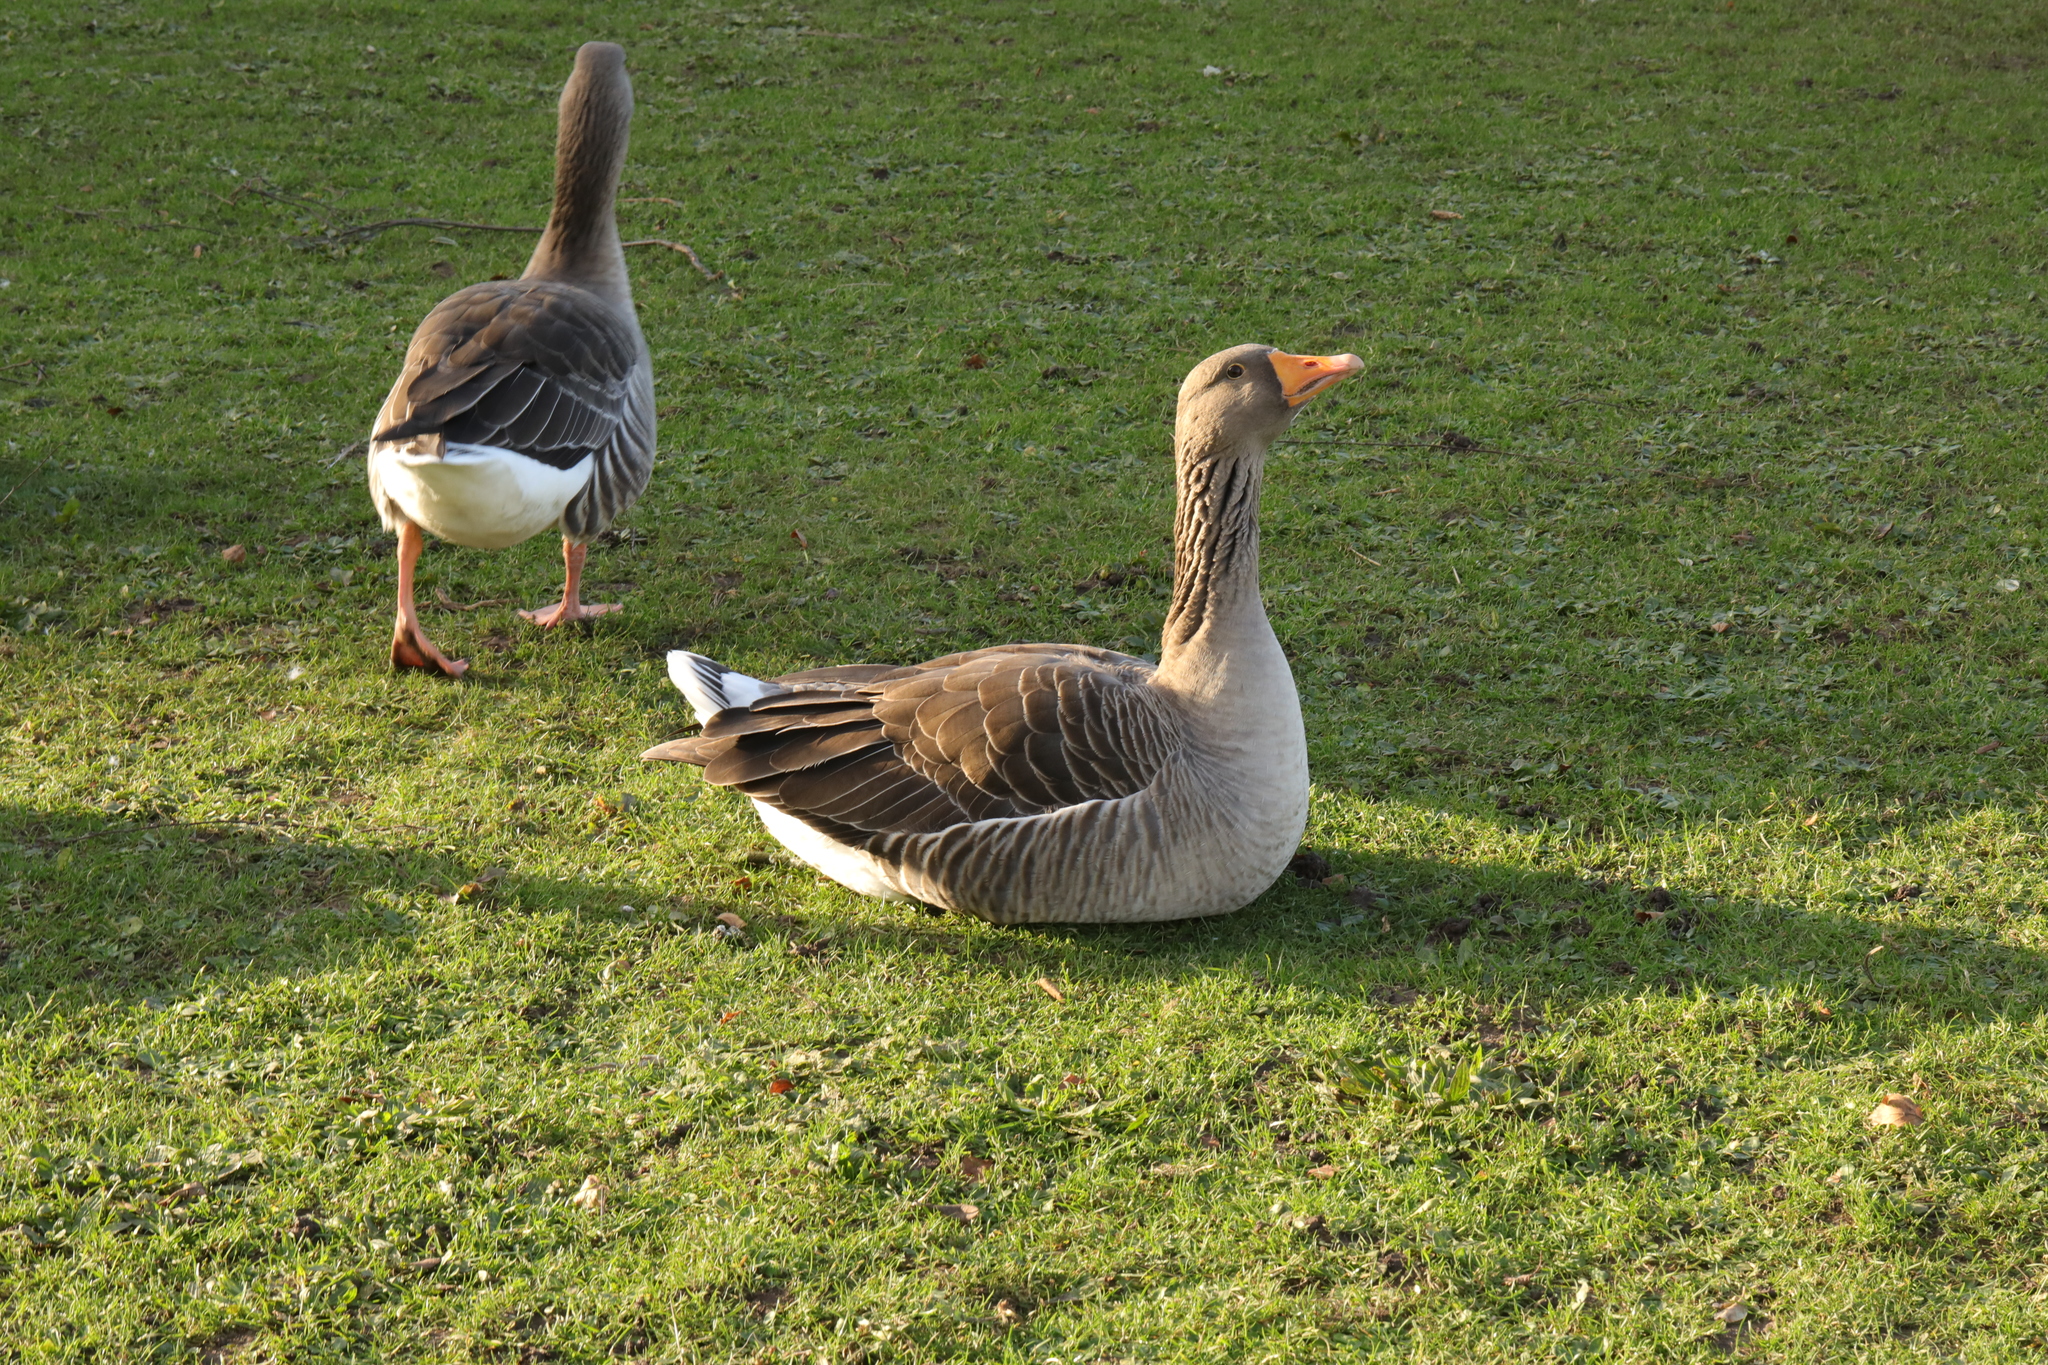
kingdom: Animalia
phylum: Chordata
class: Aves
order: Anseriformes
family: Anatidae
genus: Anser
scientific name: Anser anser
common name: Greylag goose
